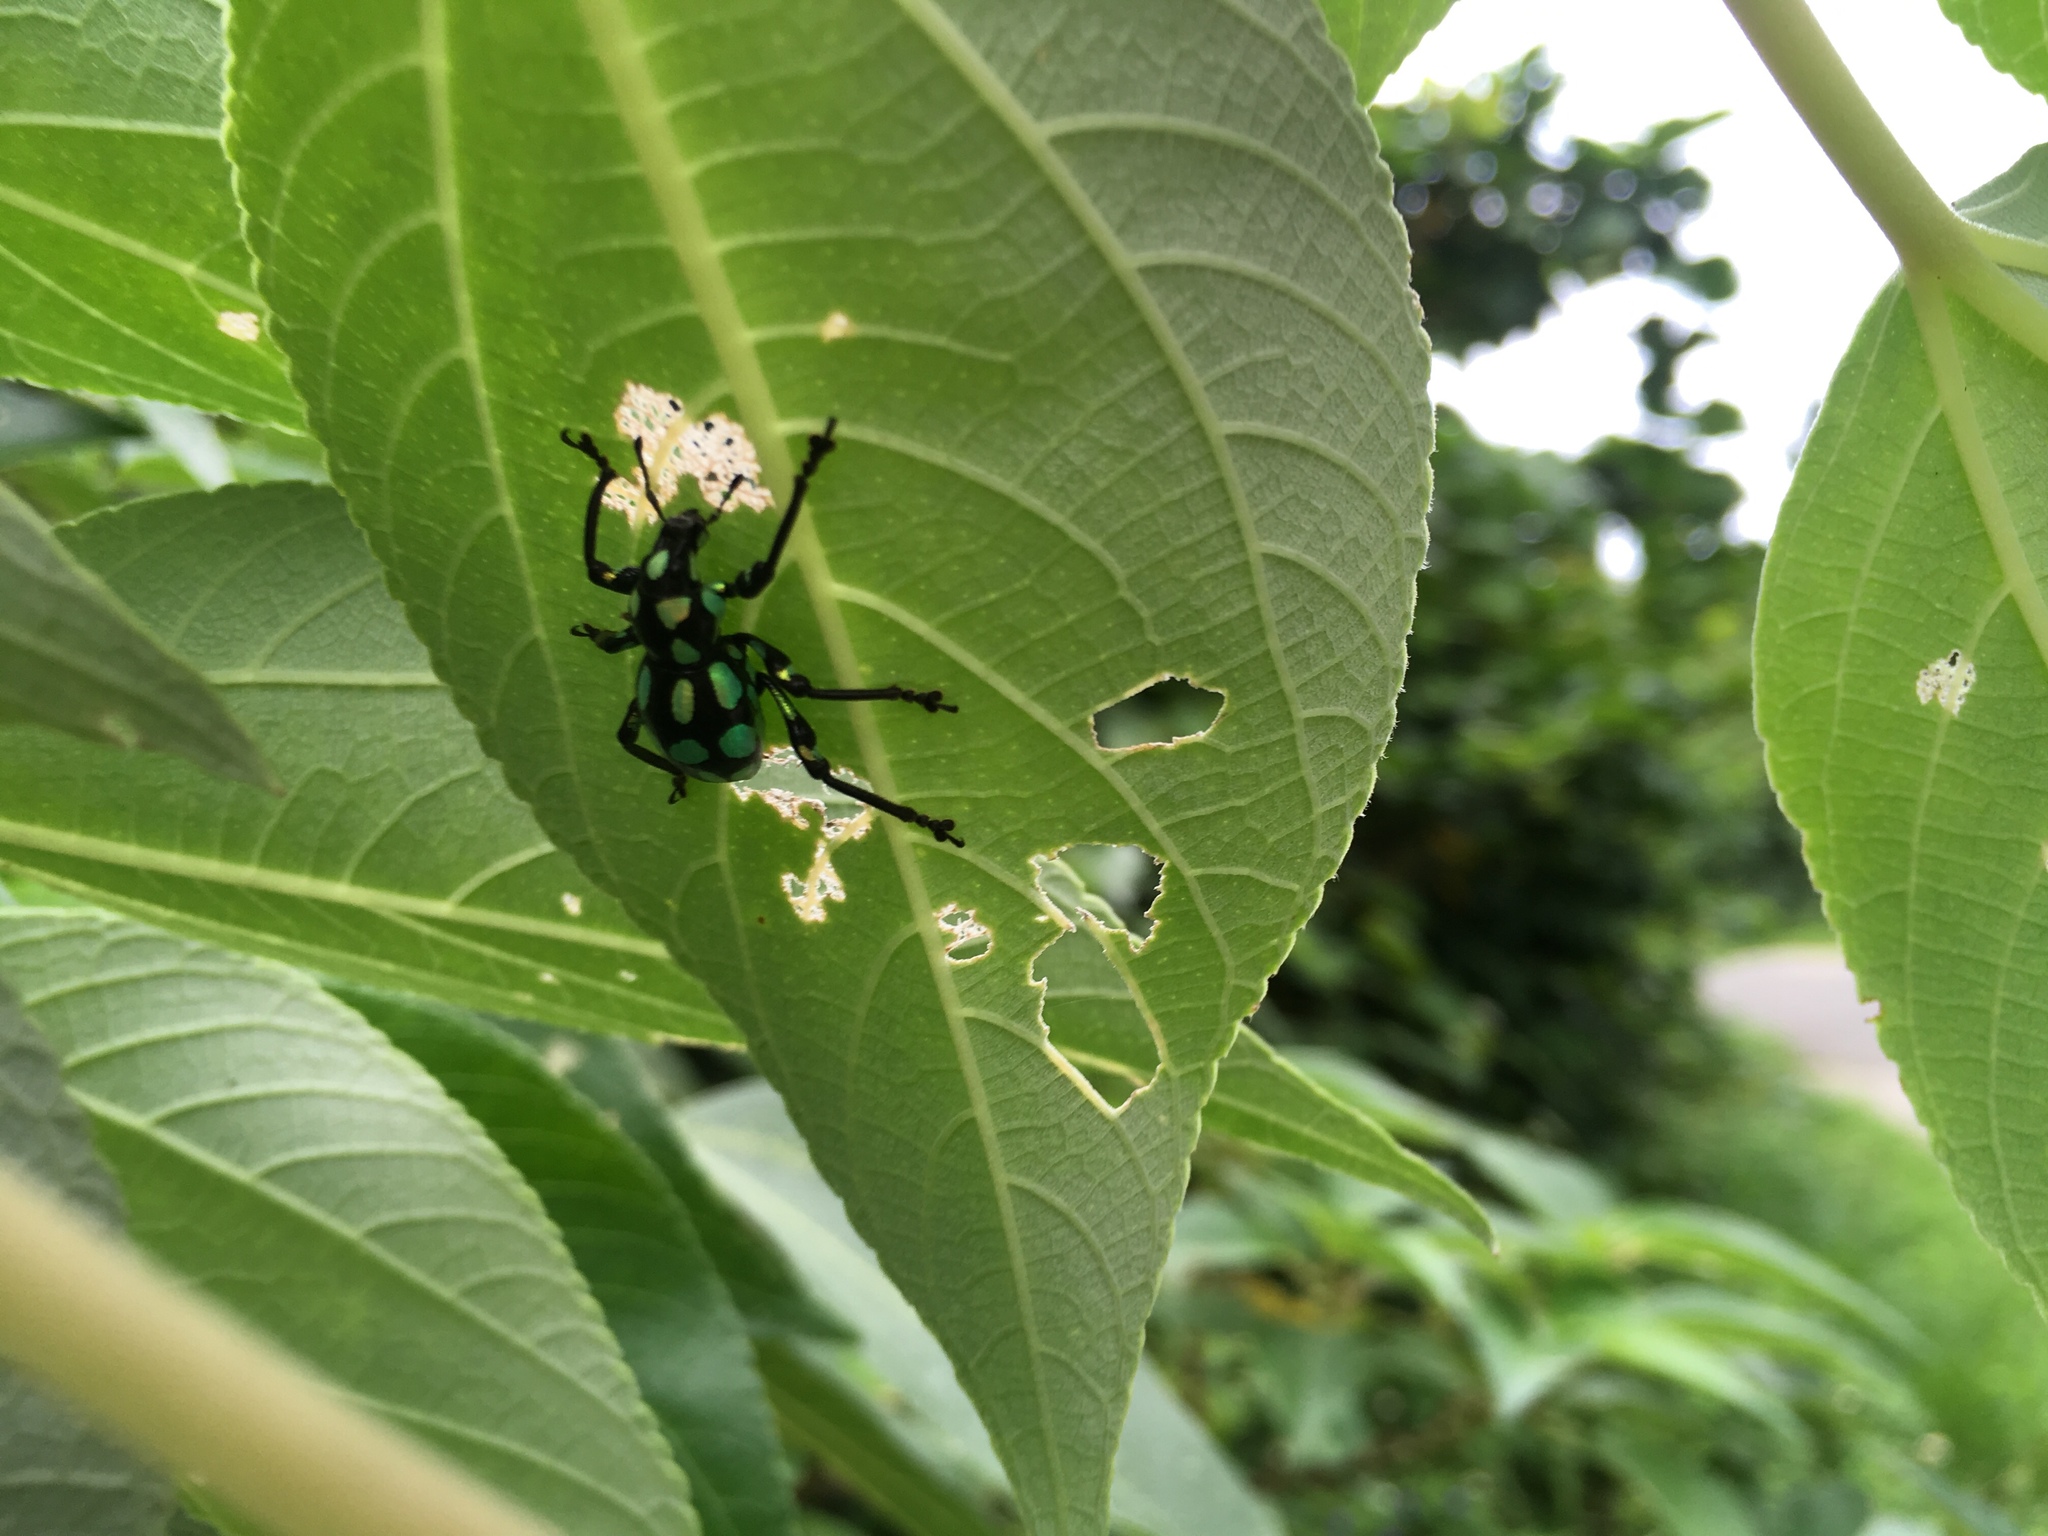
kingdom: Animalia
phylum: Arthropoda
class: Insecta
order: Coleoptera
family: Curculionidae
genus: Pachyrhynchus
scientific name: Pachyrhynchus tobafolius
